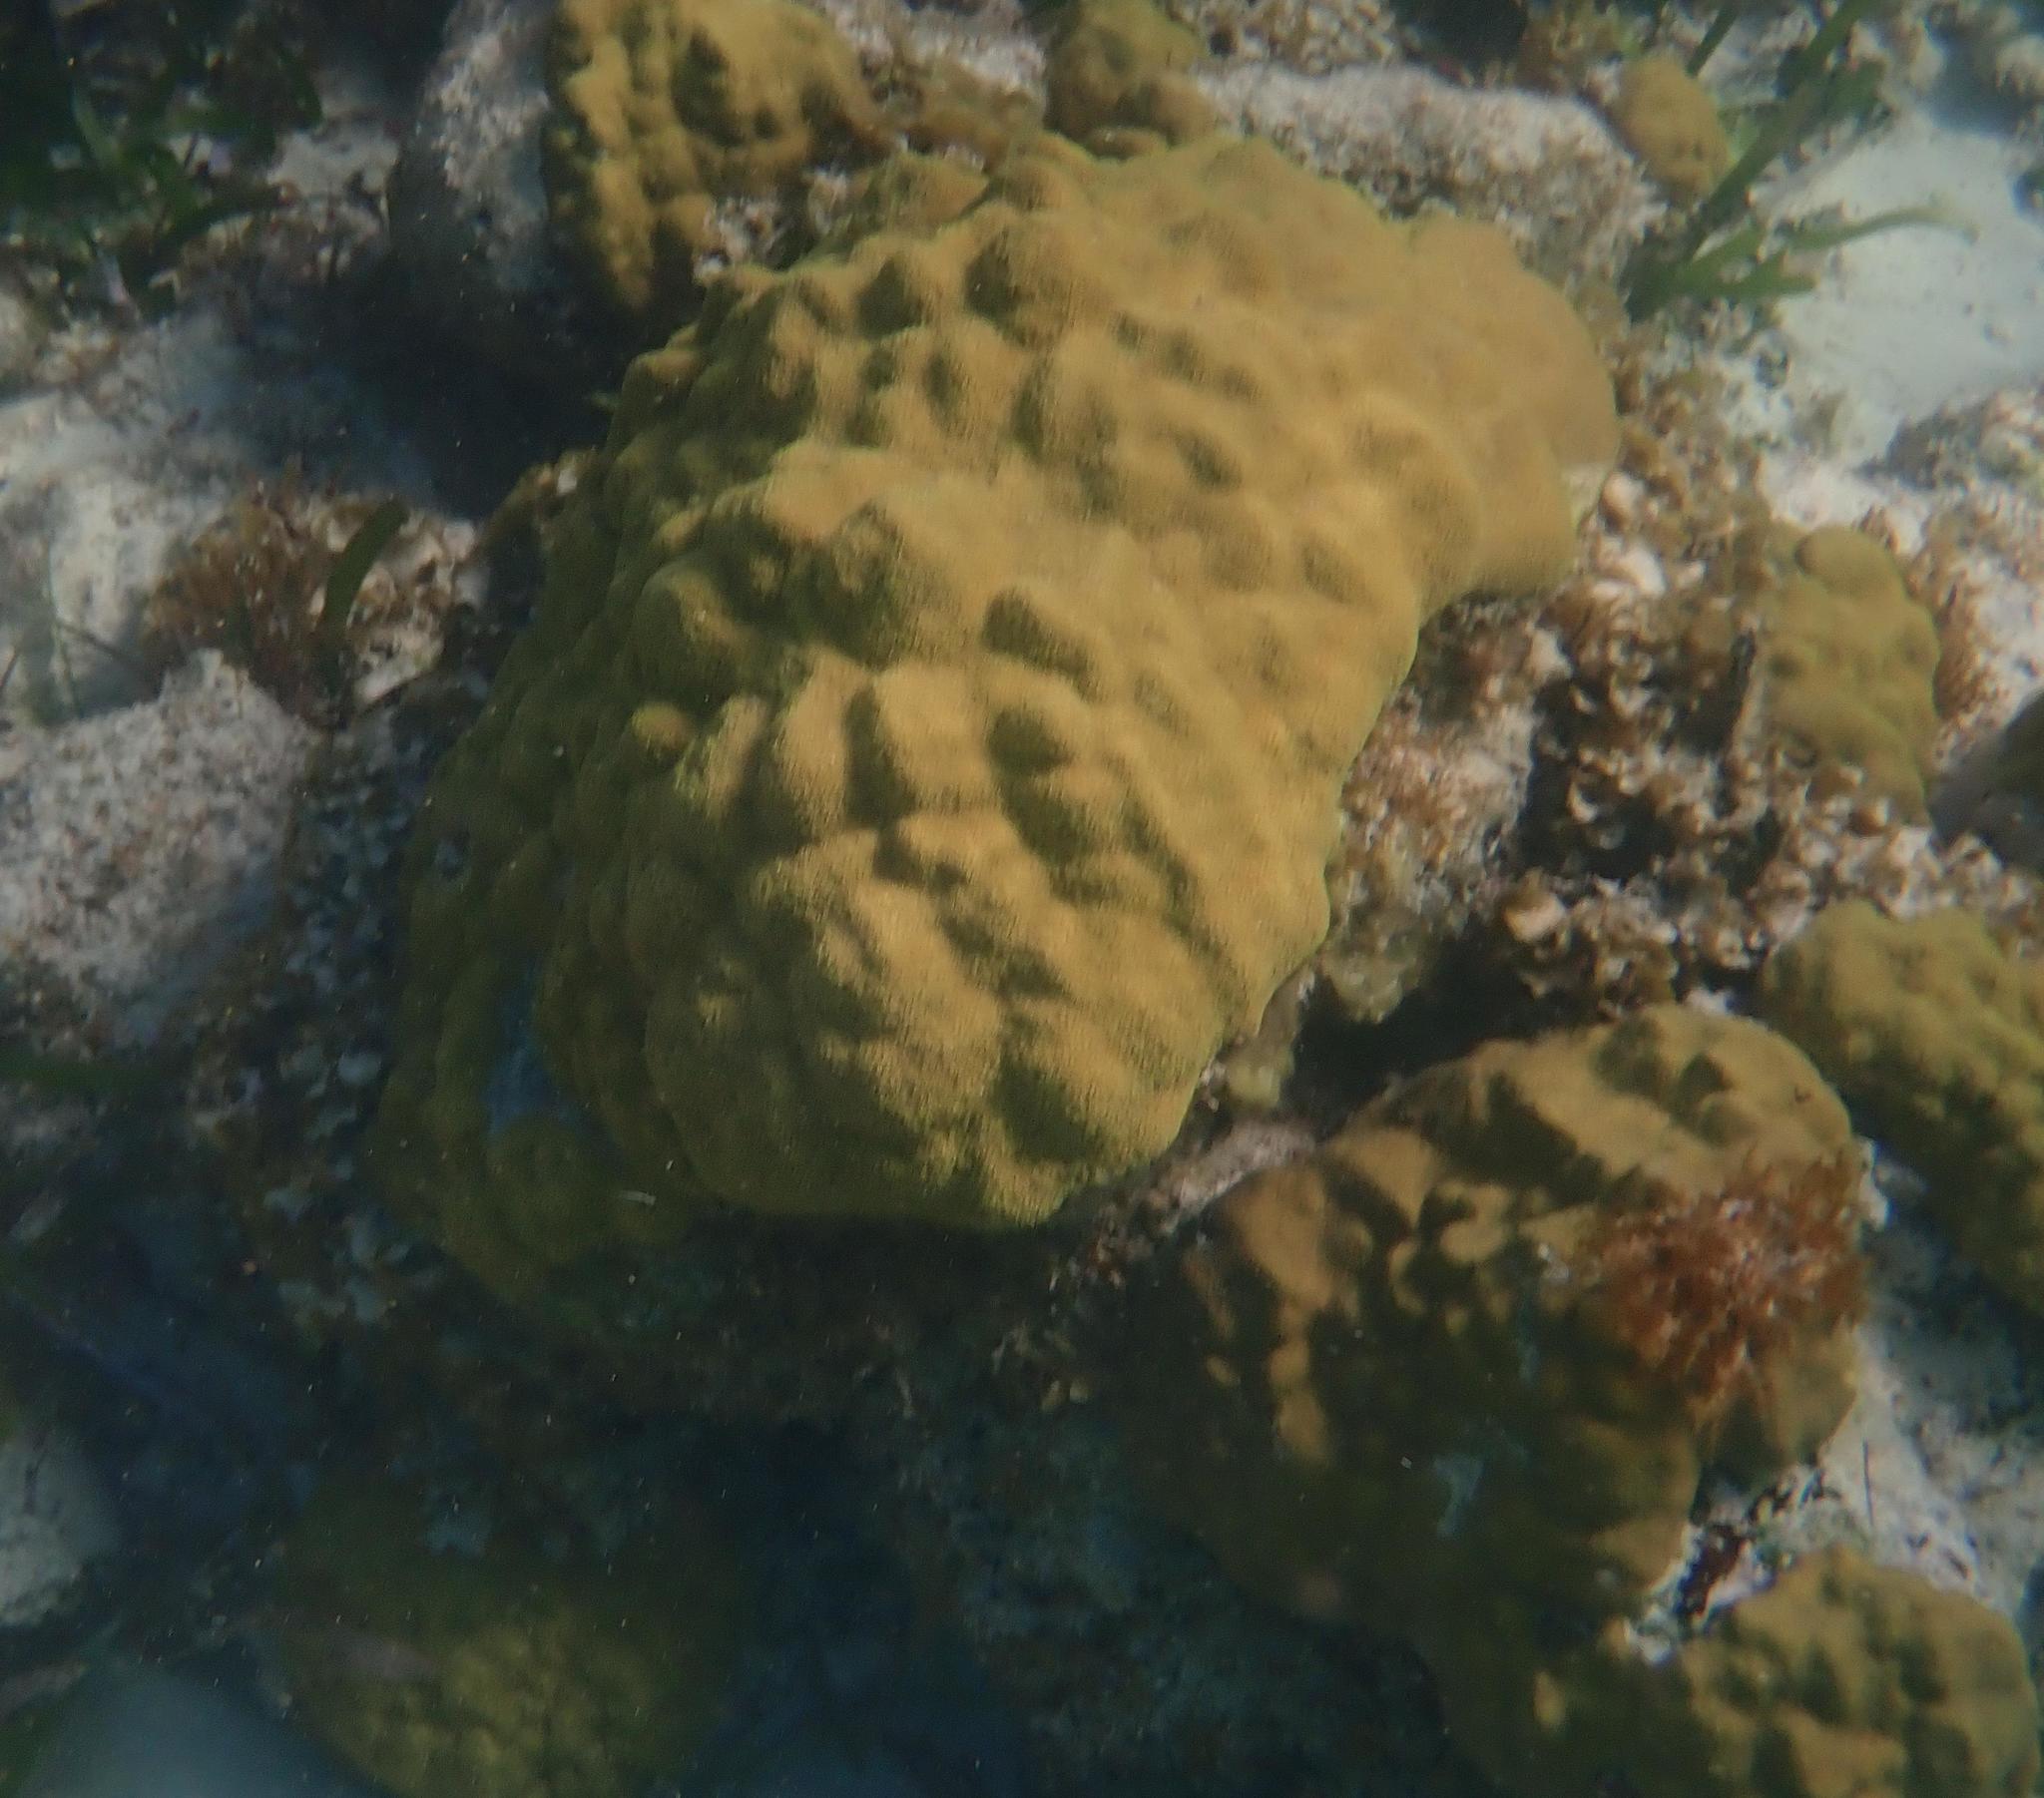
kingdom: Animalia
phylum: Cnidaria
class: Anthozoa
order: Scleractinia
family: Poritidae
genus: Porites
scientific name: Porites astreoides
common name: Mustard hill coral
